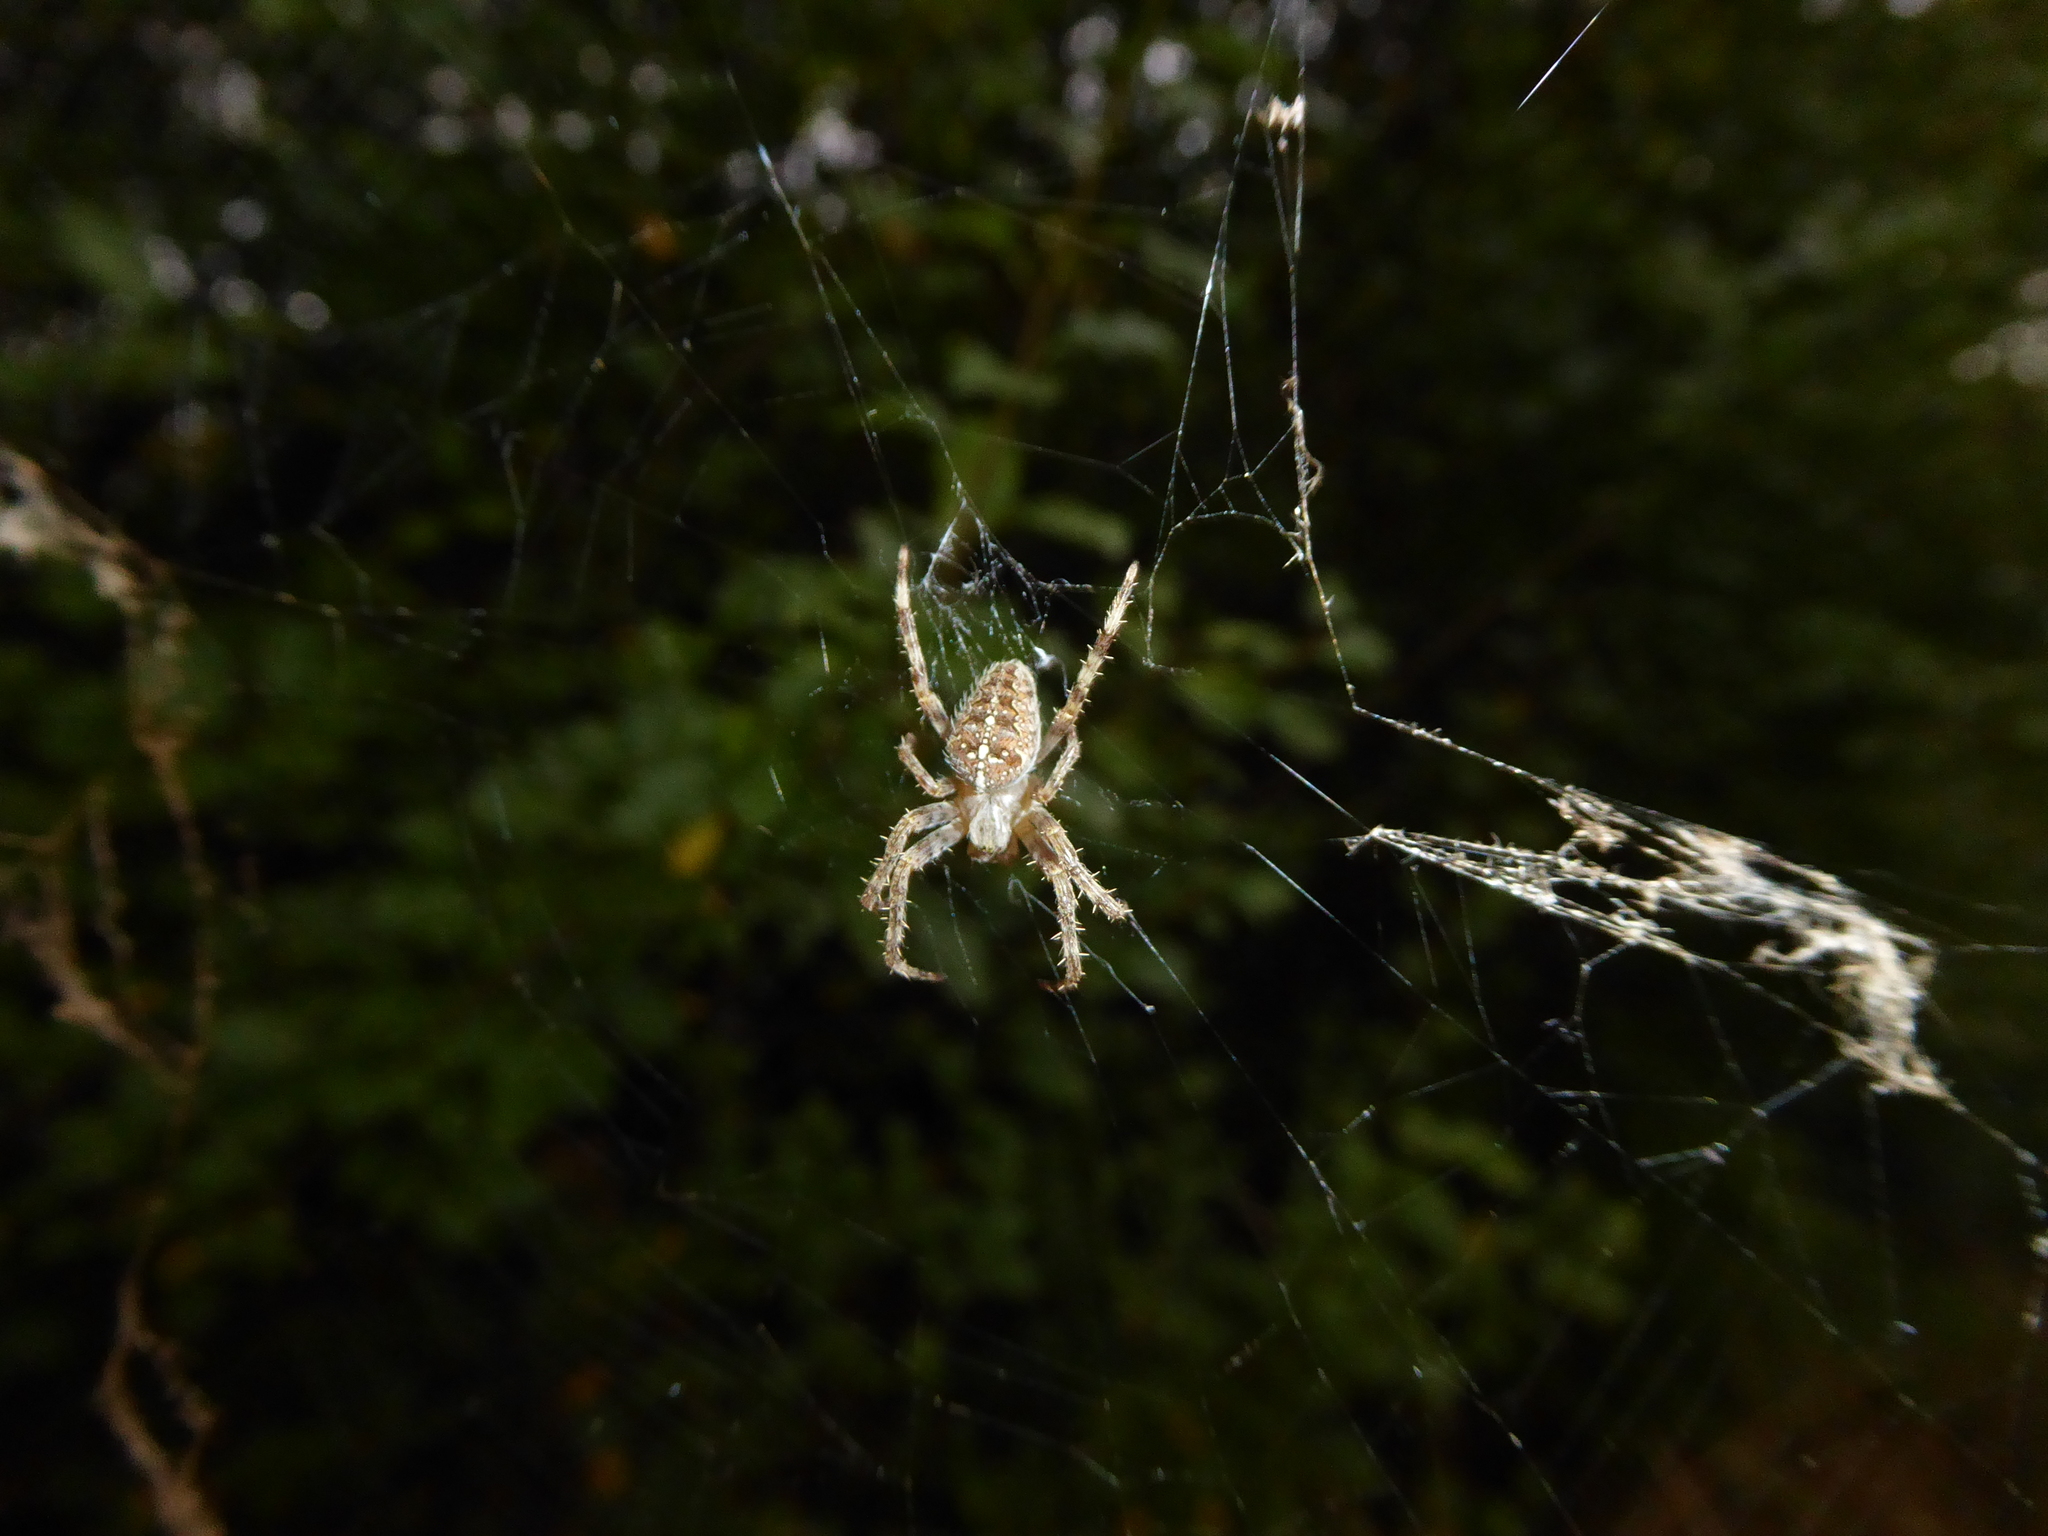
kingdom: Animalia
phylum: Arthropoda
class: Arachnida
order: Araneae
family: Araneidae
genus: Araneus
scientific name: Araneus diadematus
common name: Cross orbweaver
